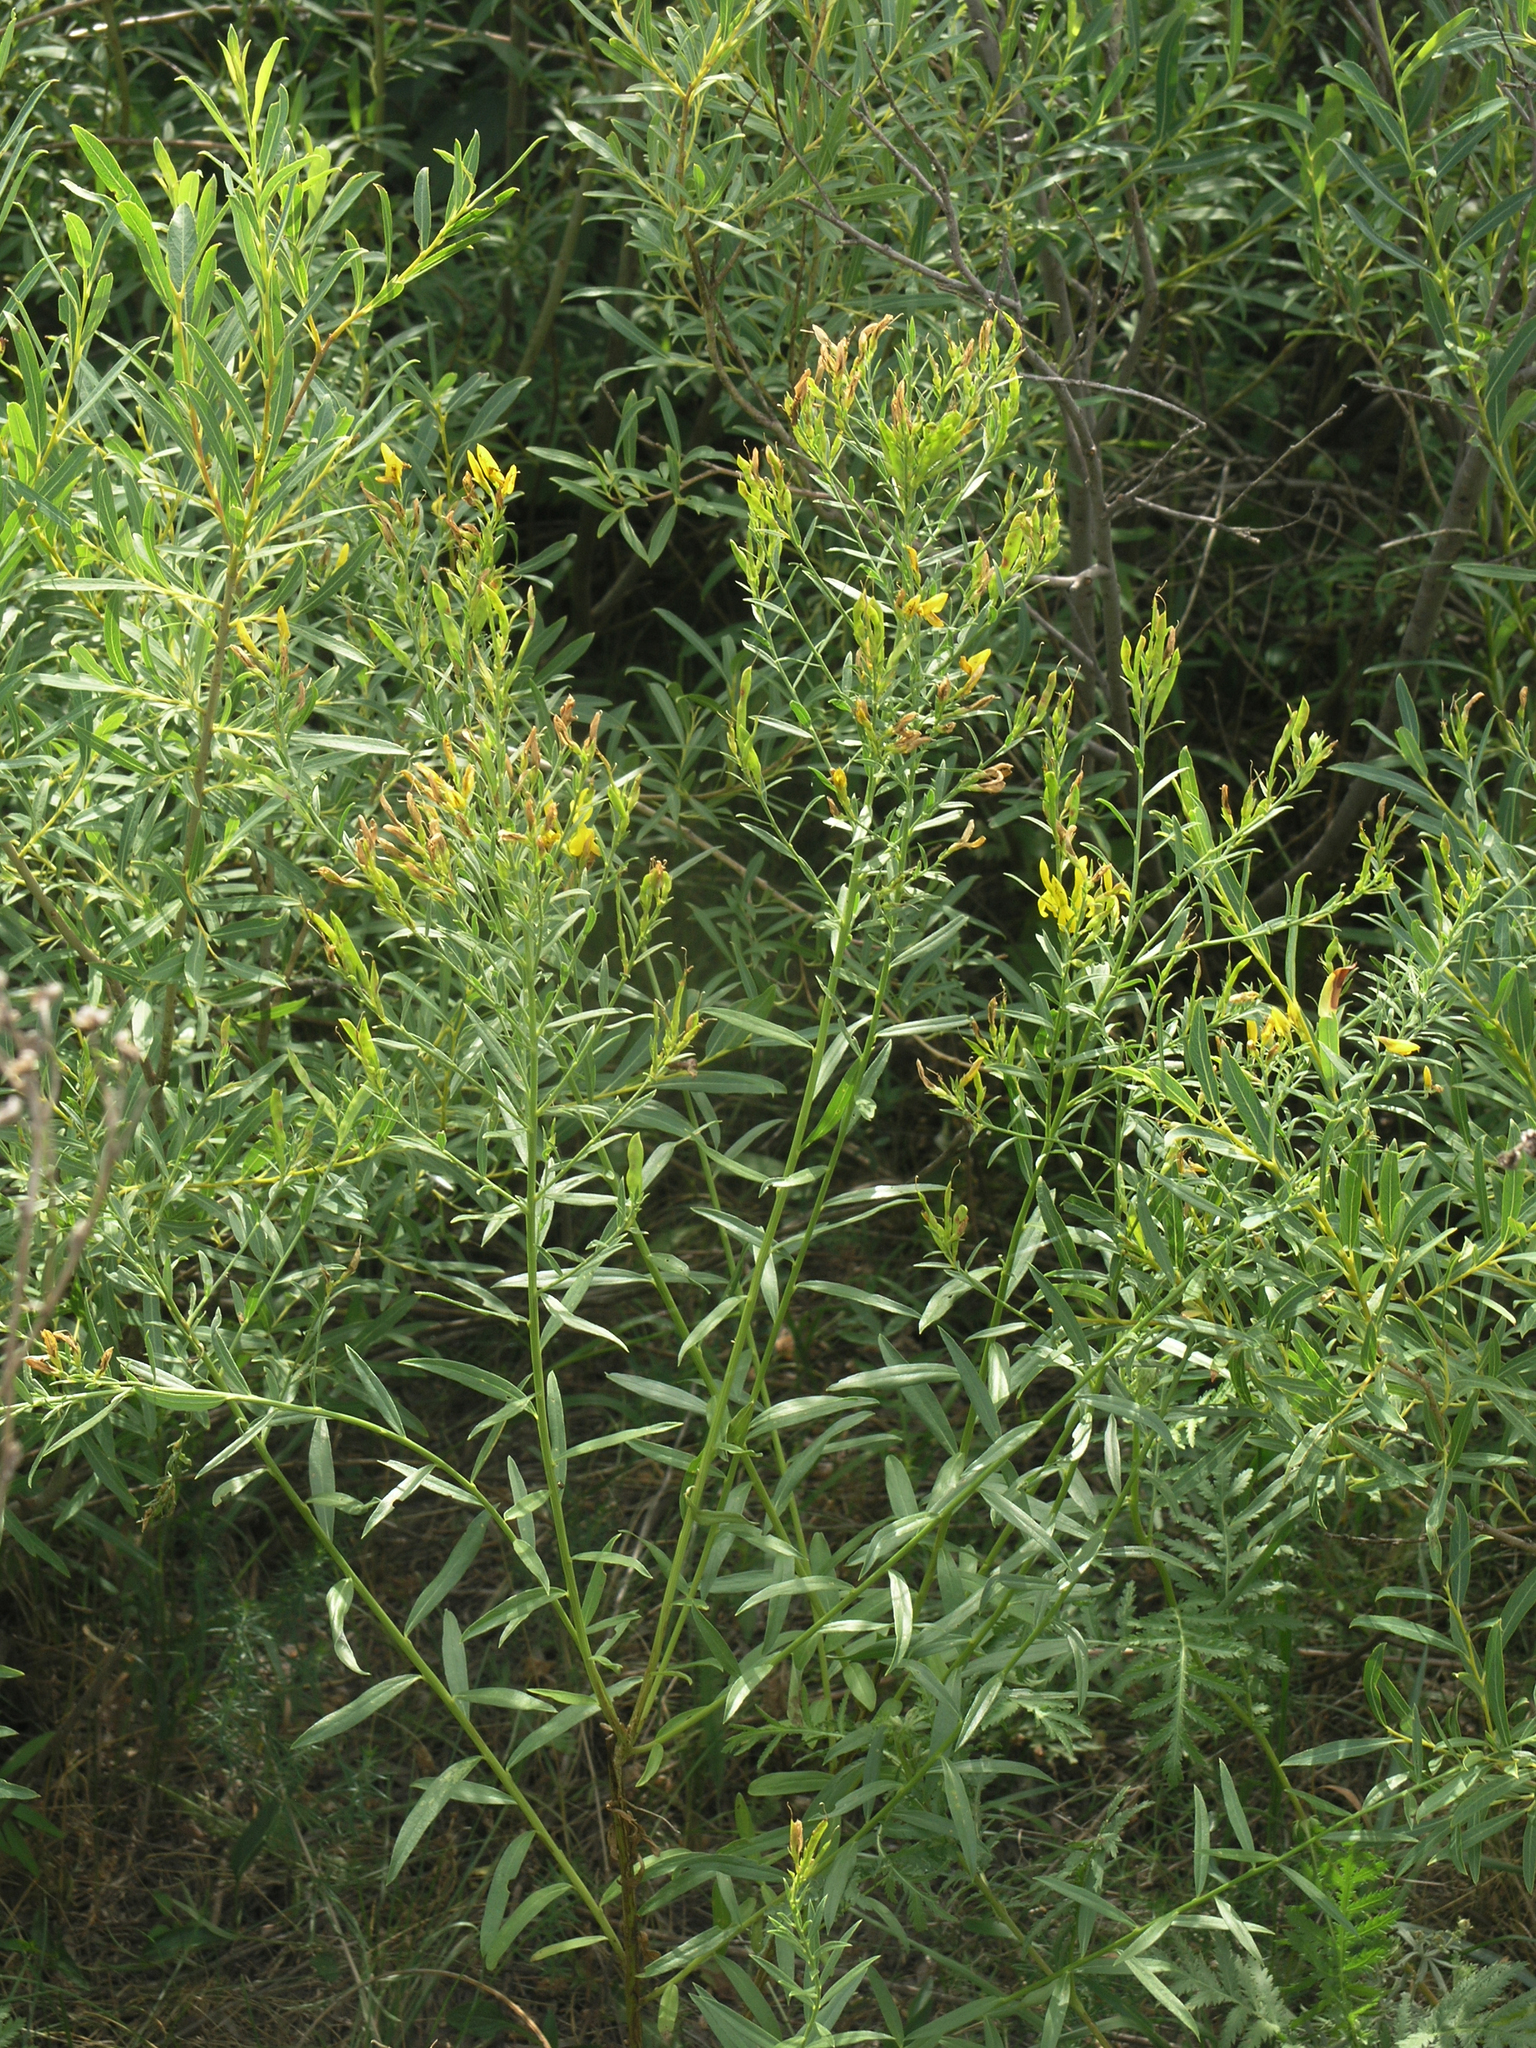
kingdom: Plantae
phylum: Tracheophyta
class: Magnoliopsida
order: Fabales
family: Fabaceae
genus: Genista
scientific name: Genista tinctoria
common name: Dyer's greenweed
